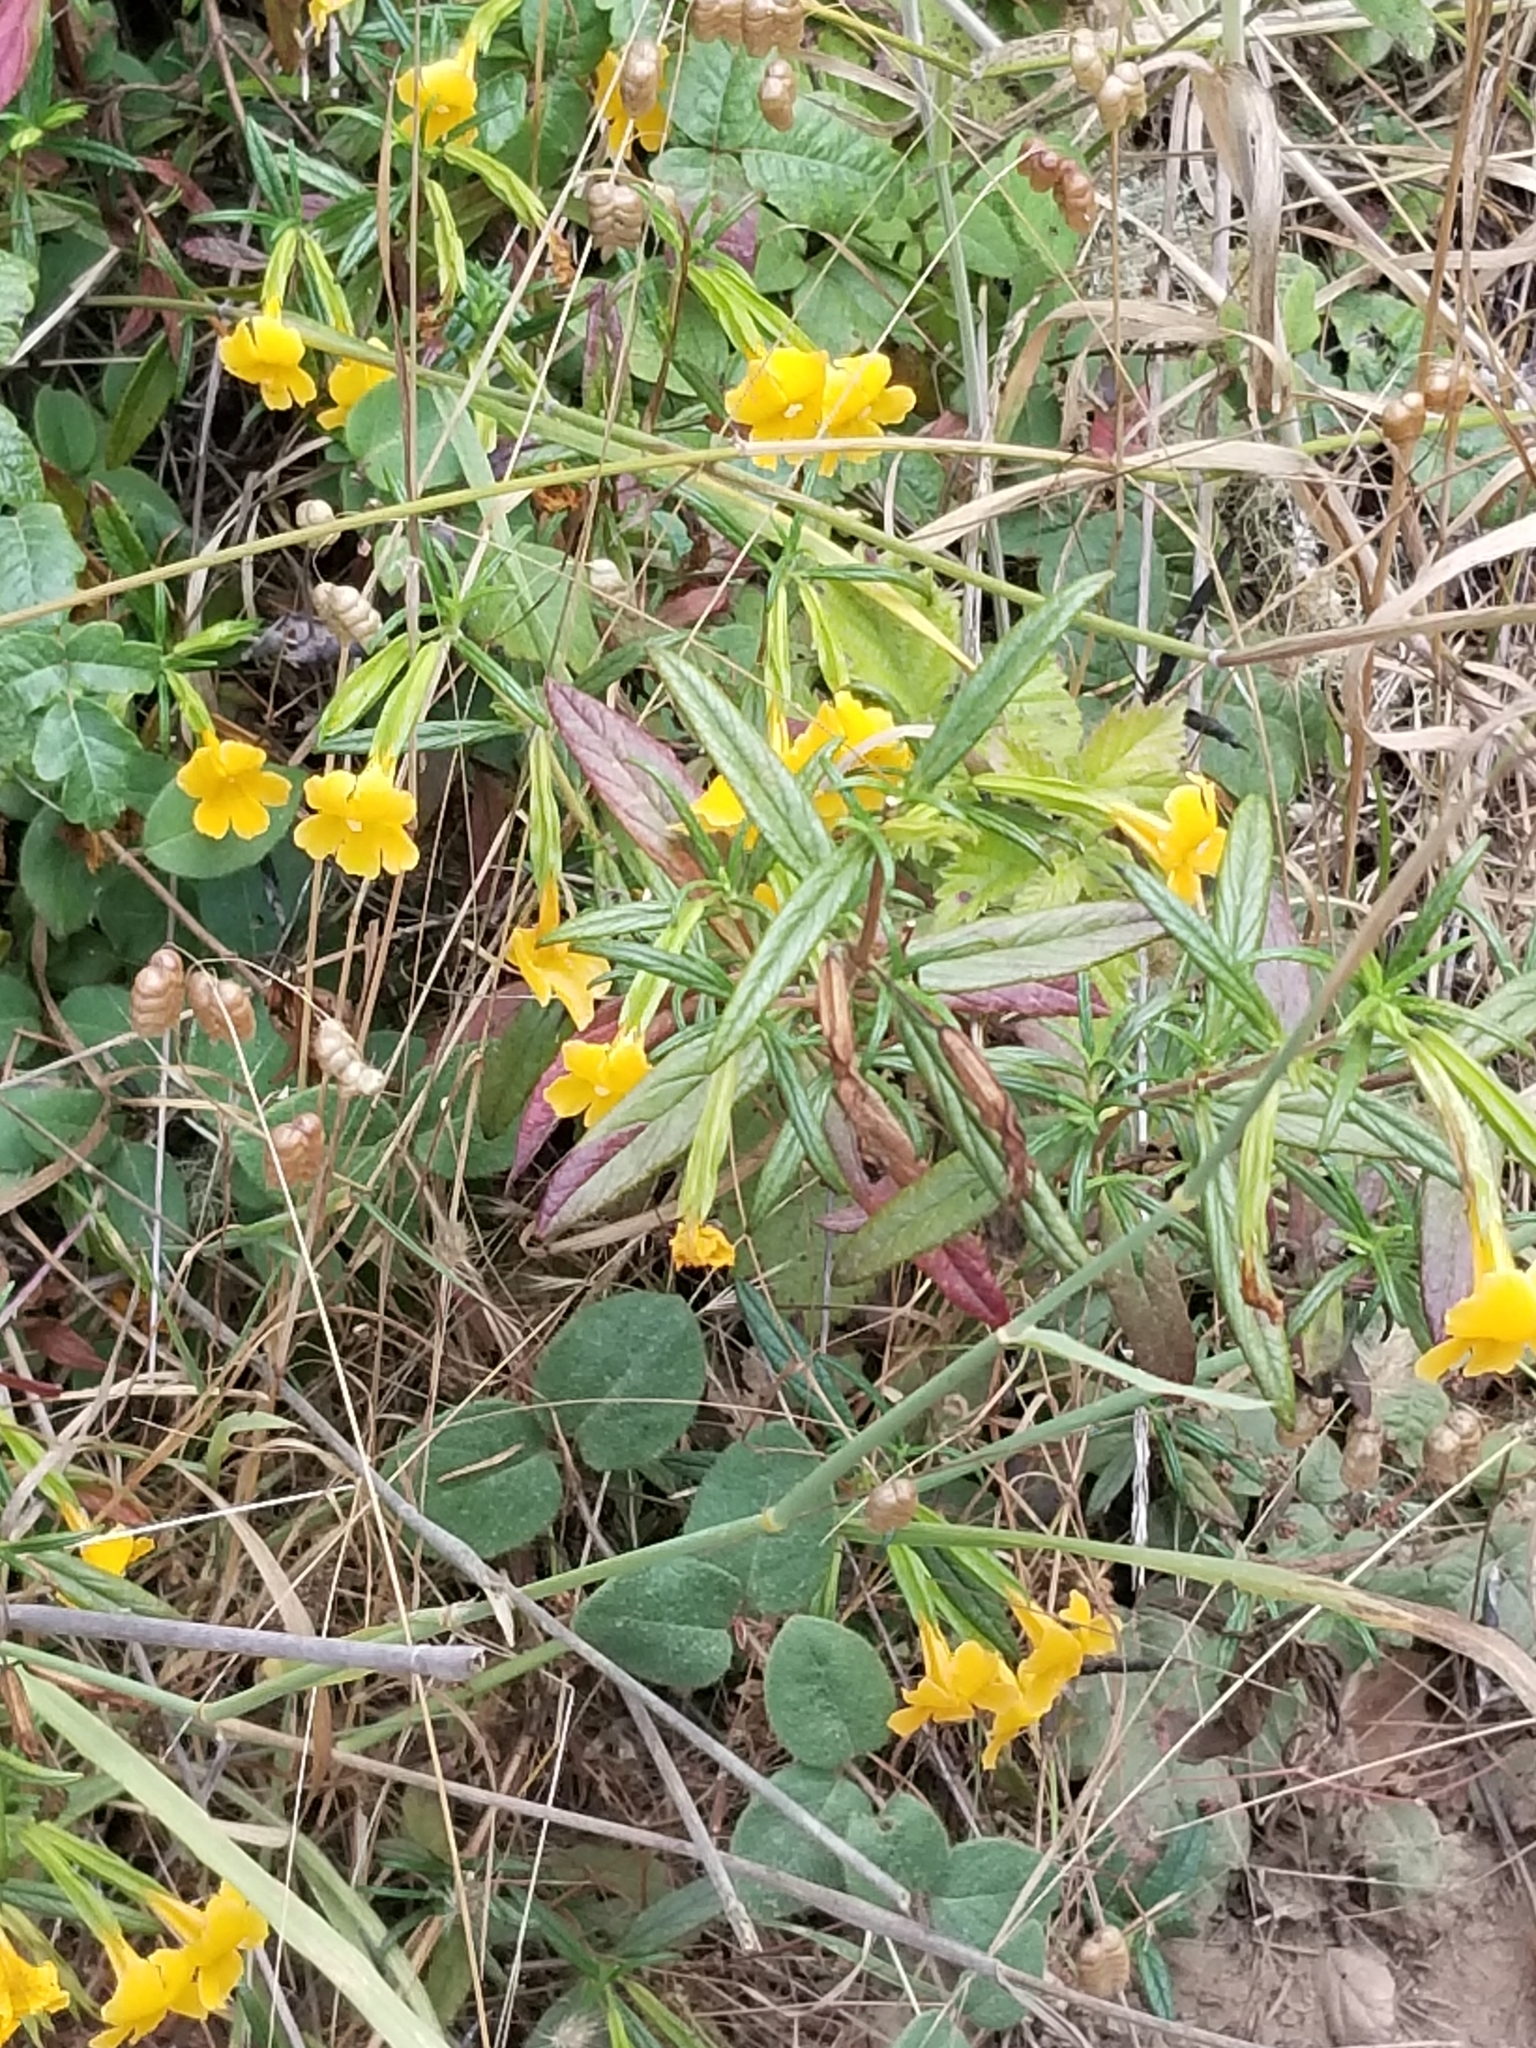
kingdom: Plantae
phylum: Tracheophyta
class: Magnoliopsida
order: Lamiales
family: Phrymaceae
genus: Diplacus
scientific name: Diplacus aurantiacus
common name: Bush monkey-flower
